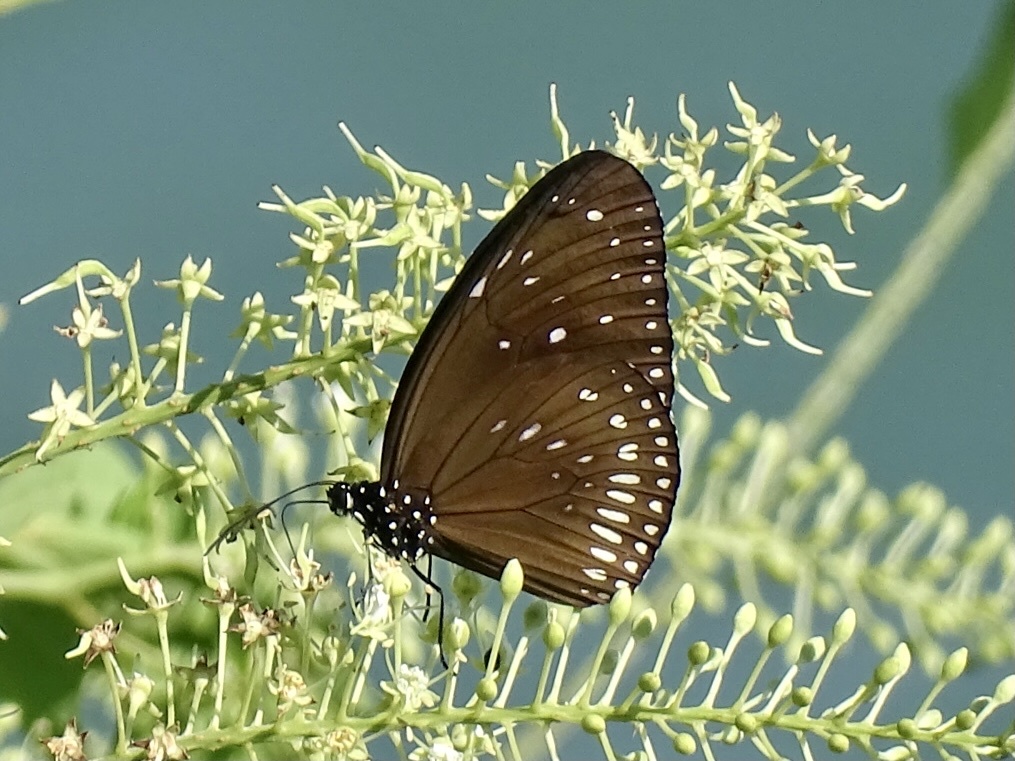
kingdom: Animalia
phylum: Arthropoda
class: Insecta
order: Lepidoptera
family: Nymphalidae
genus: Euploea
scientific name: Euploea midamus
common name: Blue-spotted crow butterfly
